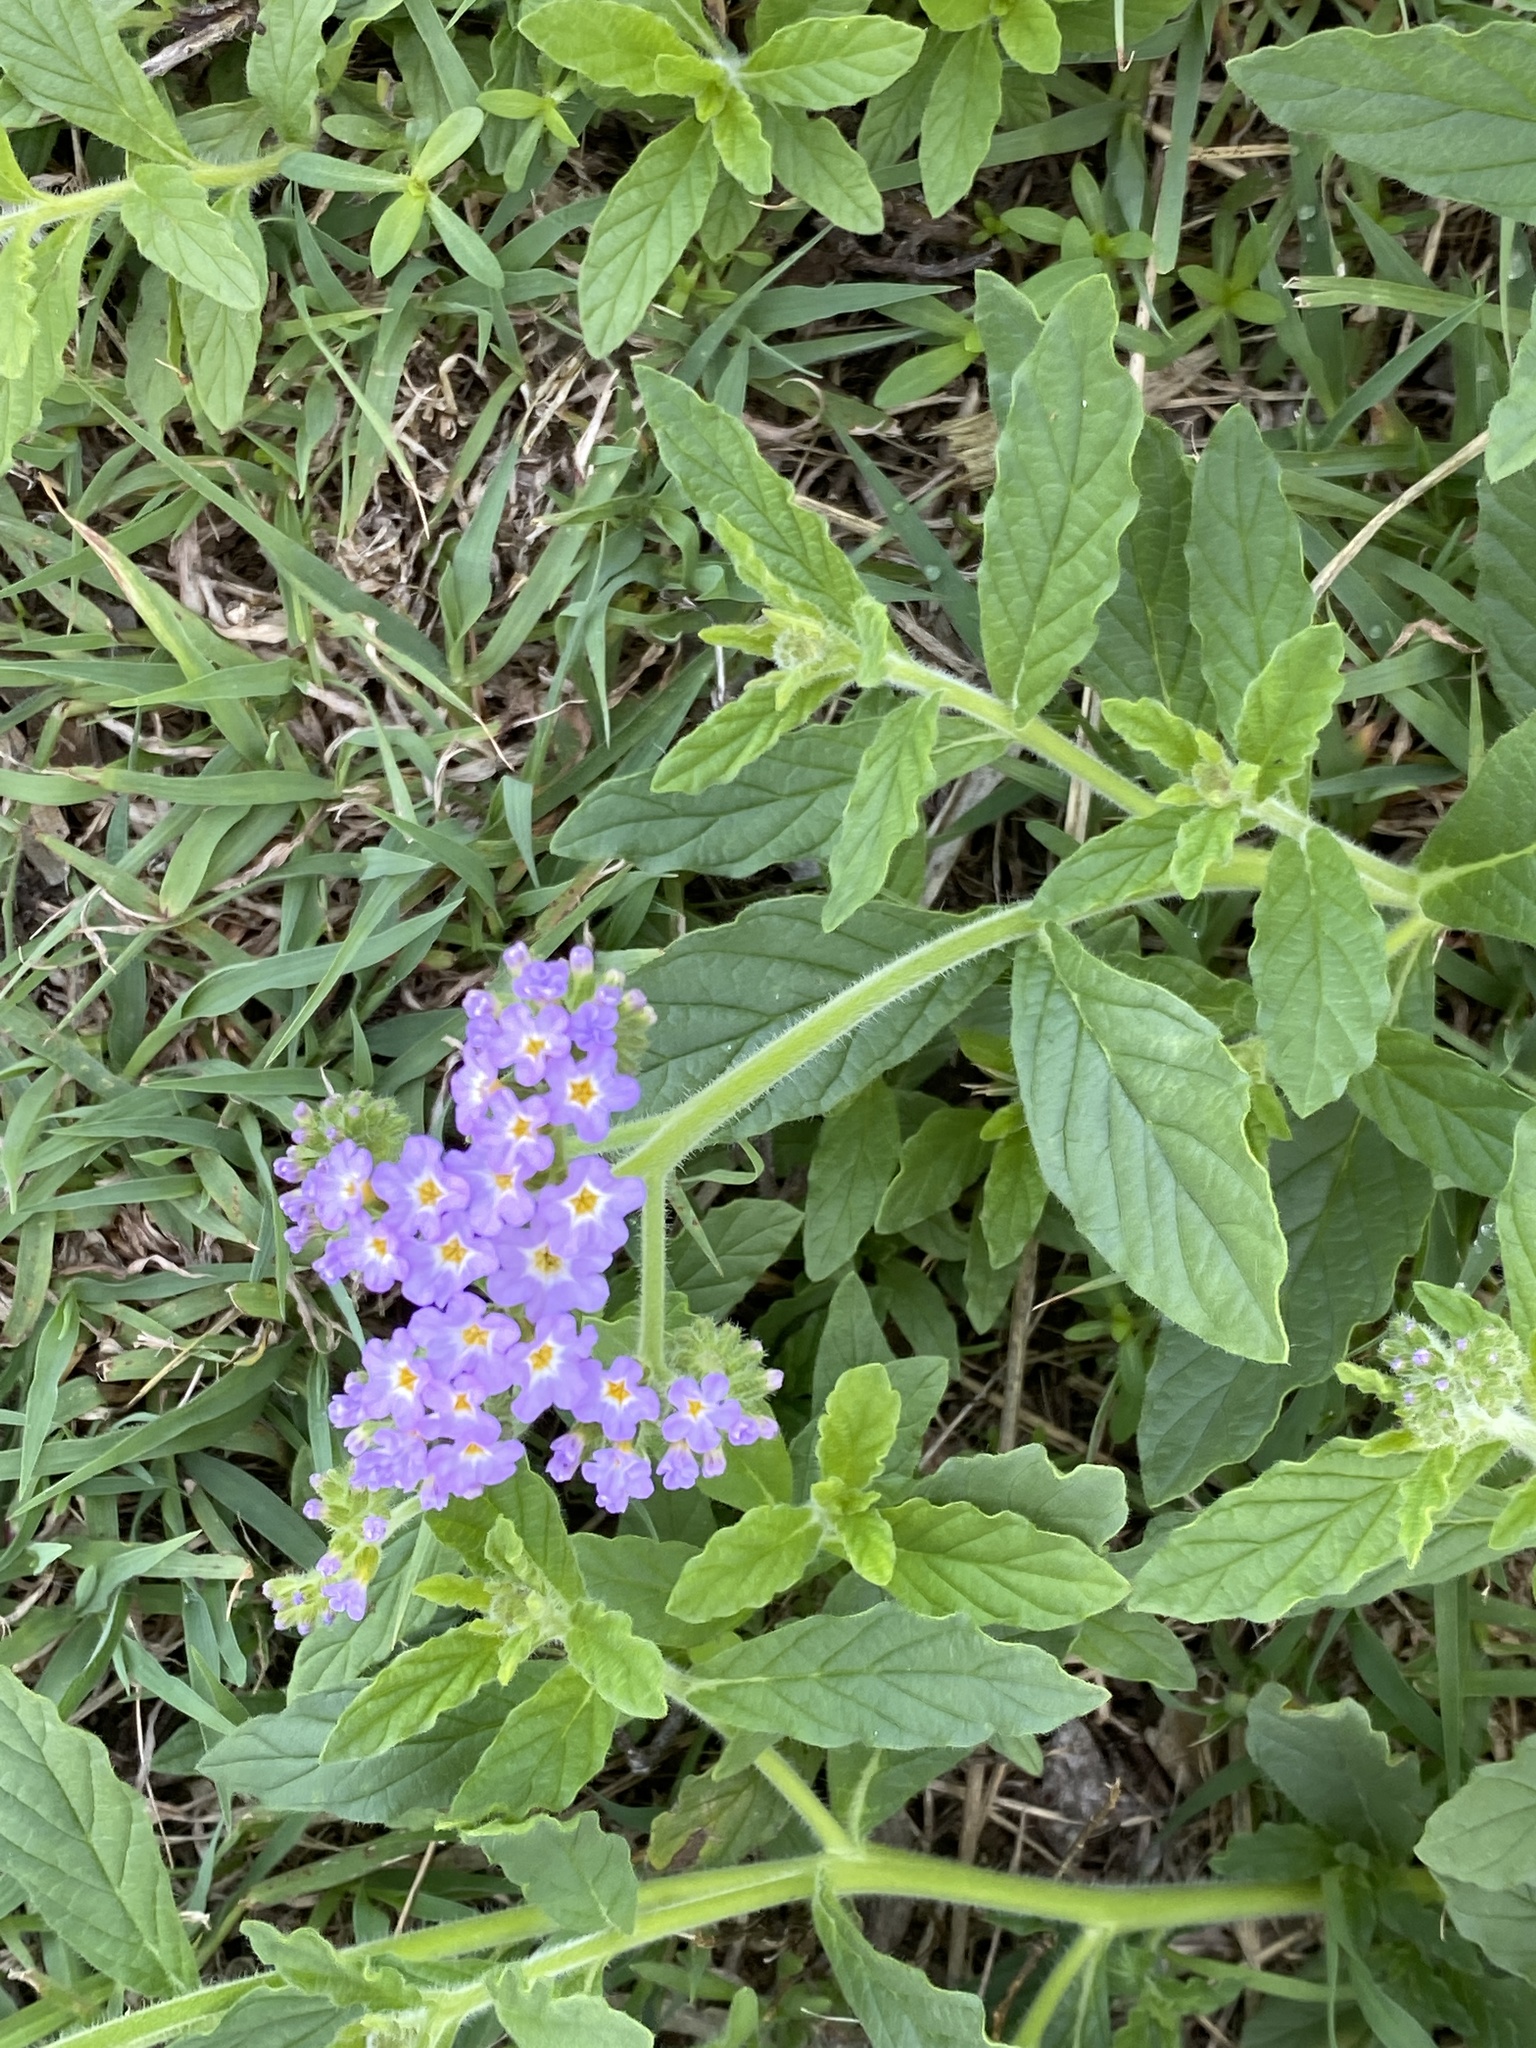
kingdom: Plantae
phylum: Tracheophyta
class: Magnoliopsida
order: Boraginales
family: Heliotropiaceae
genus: Heliotropium
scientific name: Heliotropium amplexicaule
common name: Clasping heliotrope
